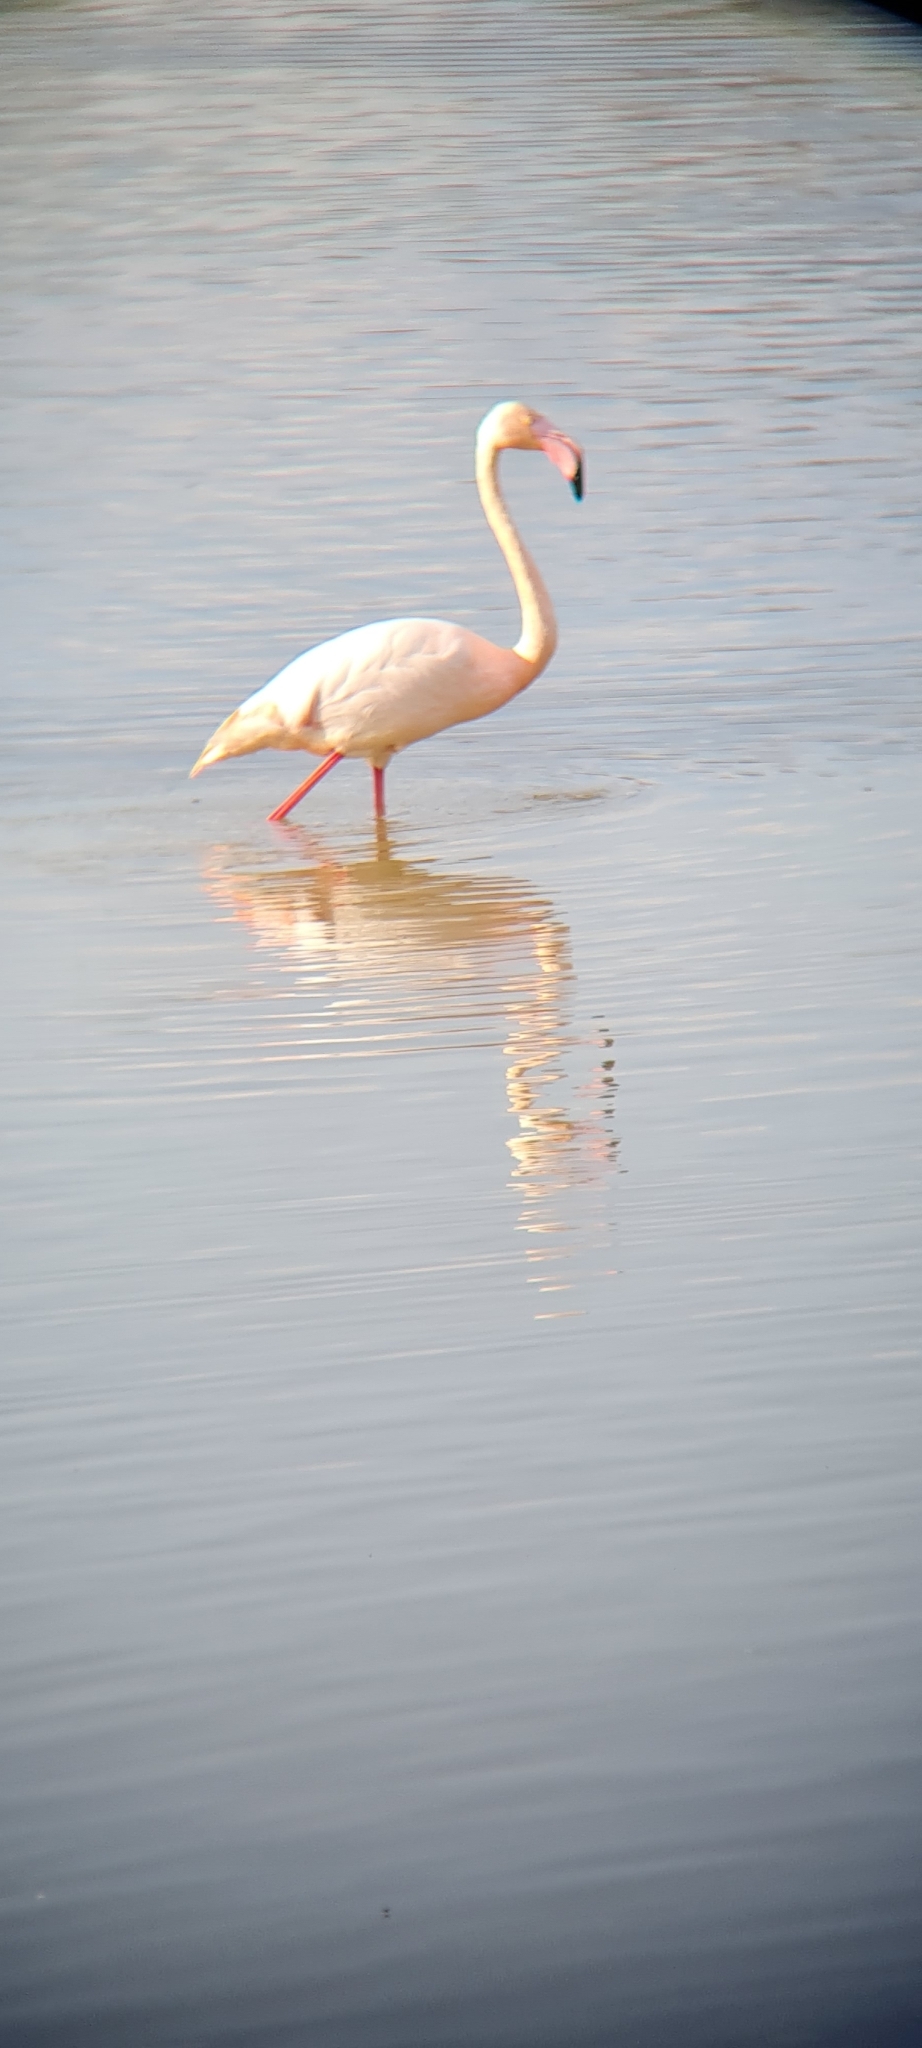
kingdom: Animalia
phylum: Chordata
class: Aves
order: Phoenicopteriformes
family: Phoenicopteridae
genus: Phoenicopterus
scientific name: Phoenicopterus roseus
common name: Greater flamingo
